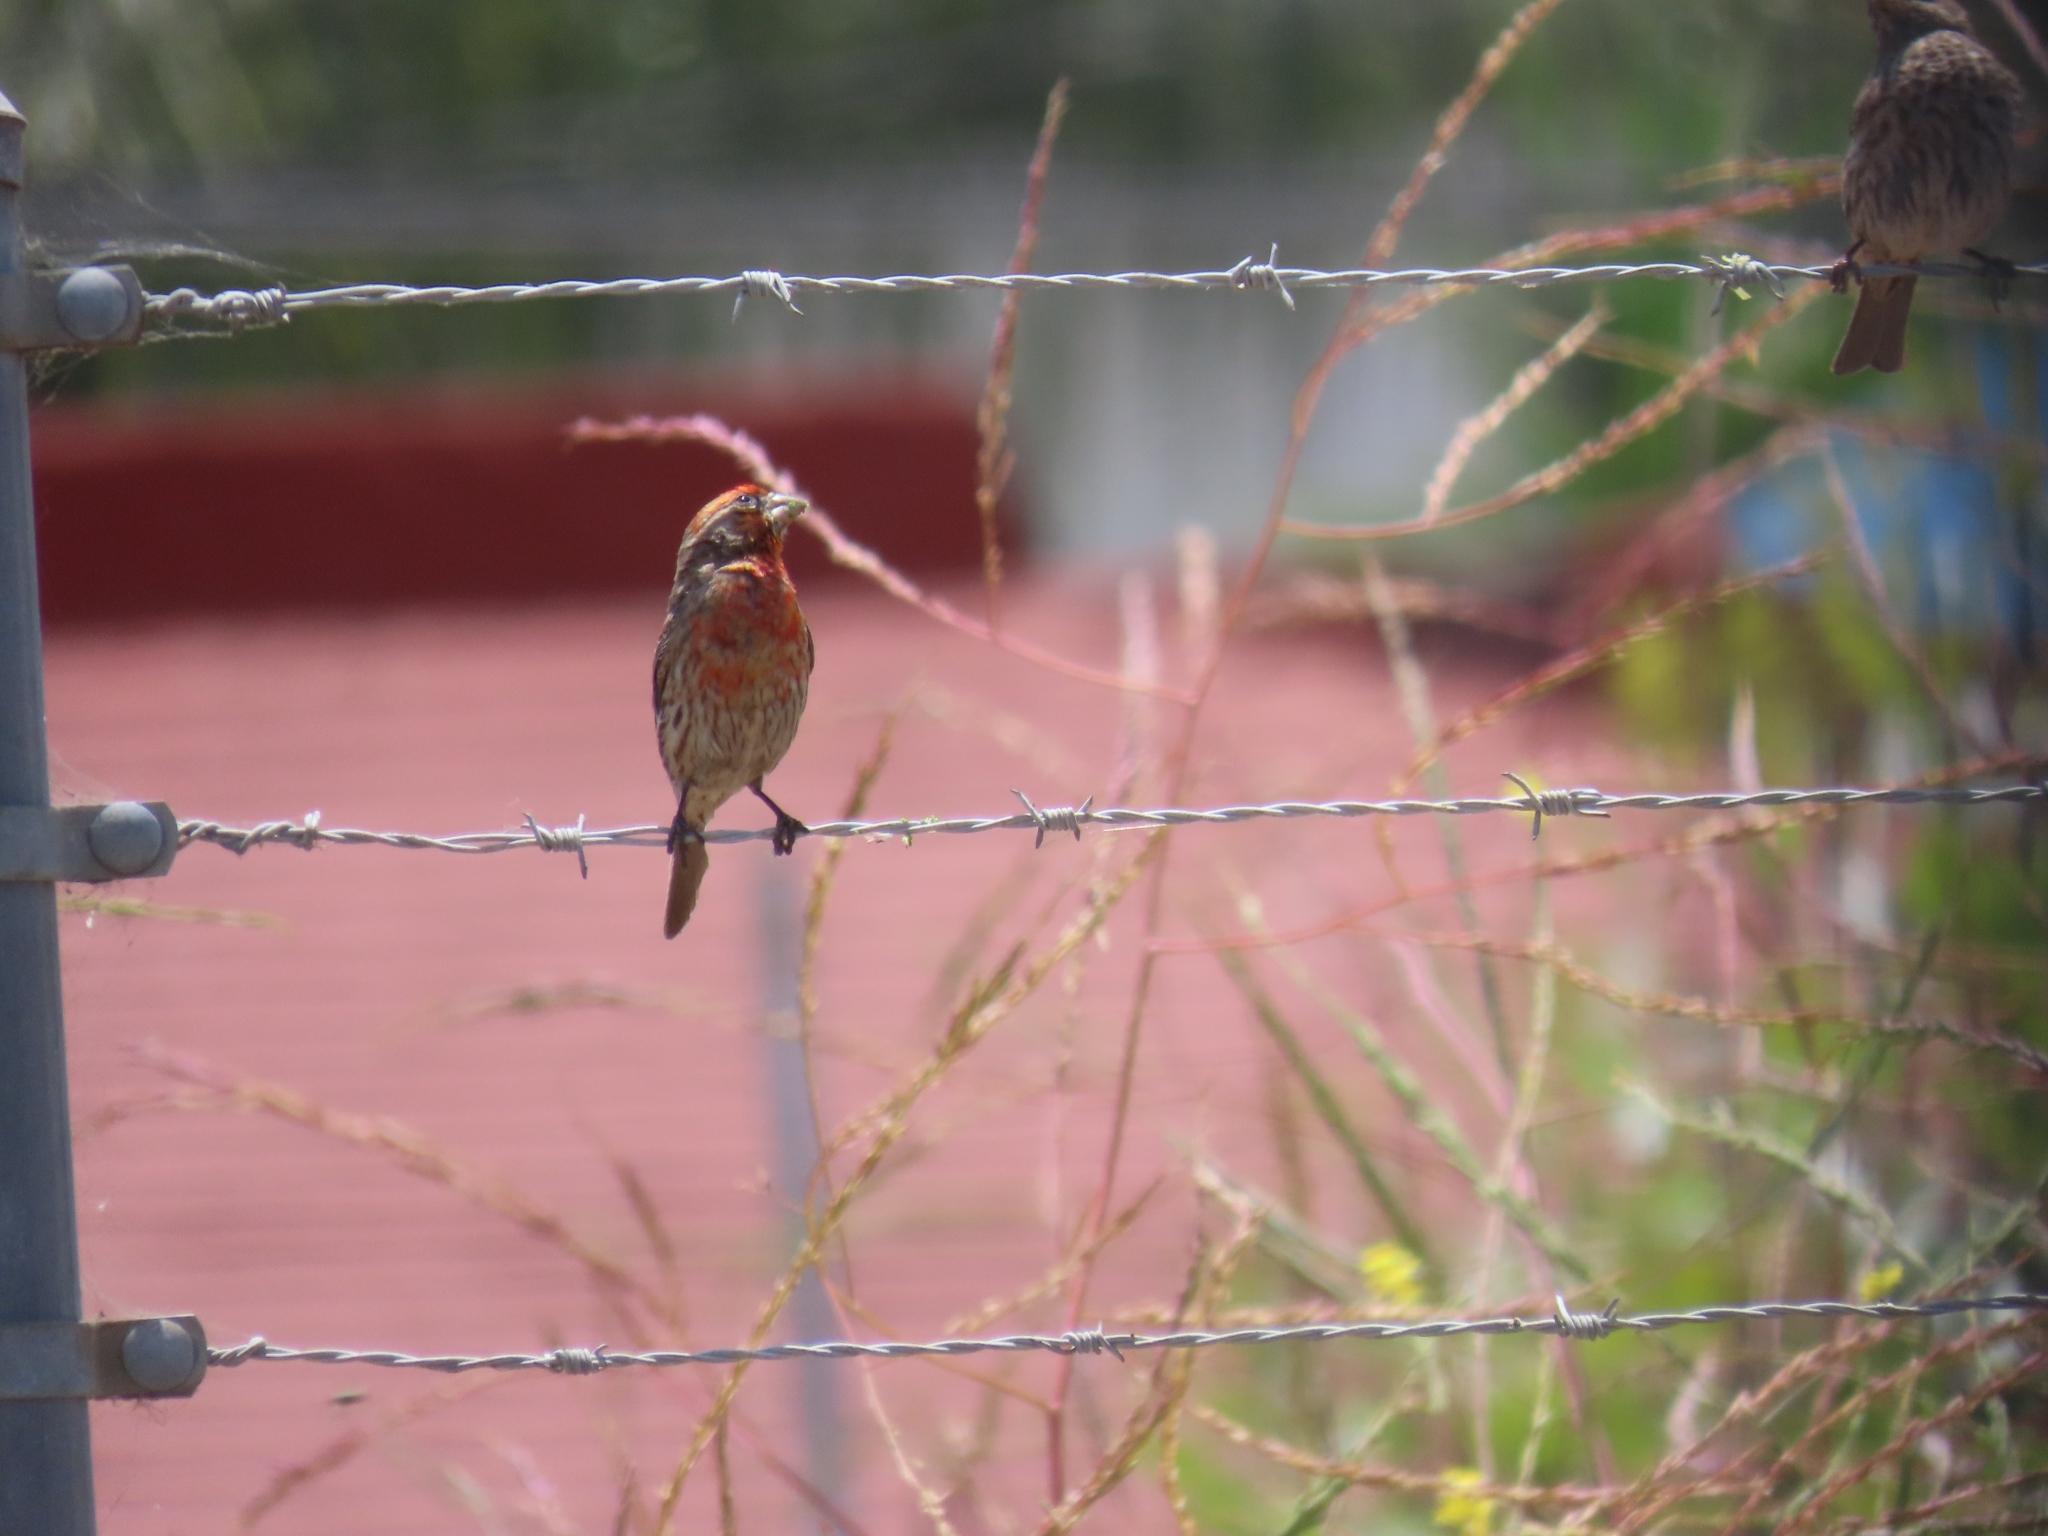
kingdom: Animalia
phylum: Chordata
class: Aves
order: Passeriformes
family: Fringillidae
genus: Haemorhous
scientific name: Haemorhous mexicanus
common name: House finch
